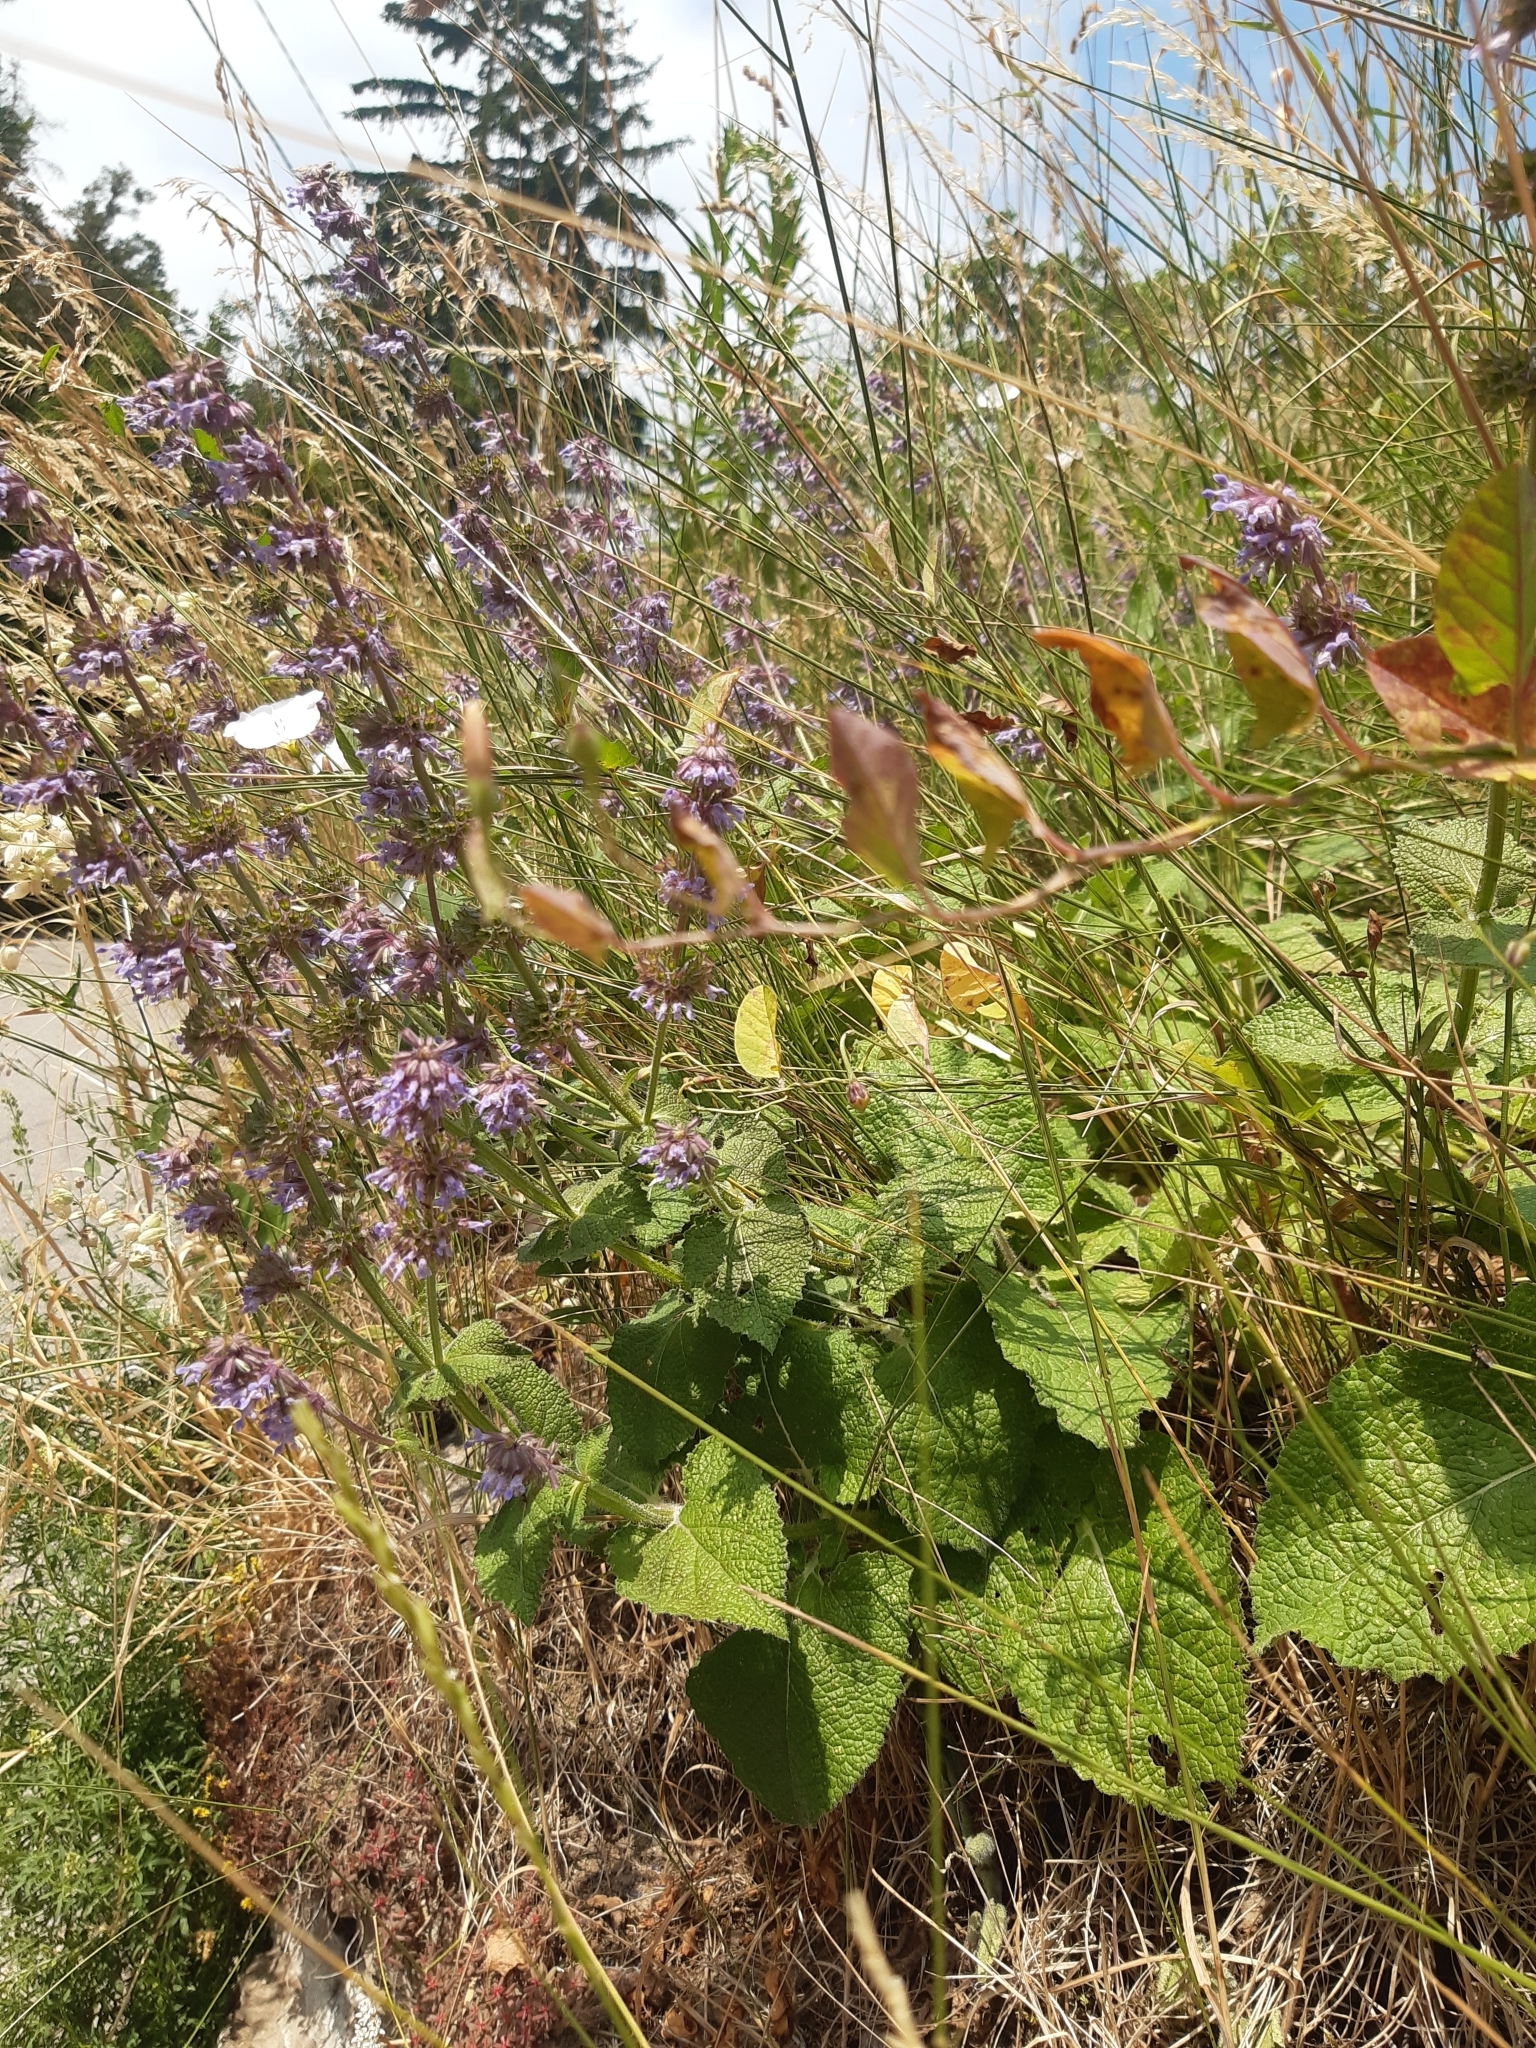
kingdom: Plantae
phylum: Tracheophyta
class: Magnoliopsida
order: Lamiales
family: Lamiaceae
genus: Salvia
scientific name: Salvia verticillata
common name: Whorled clary
